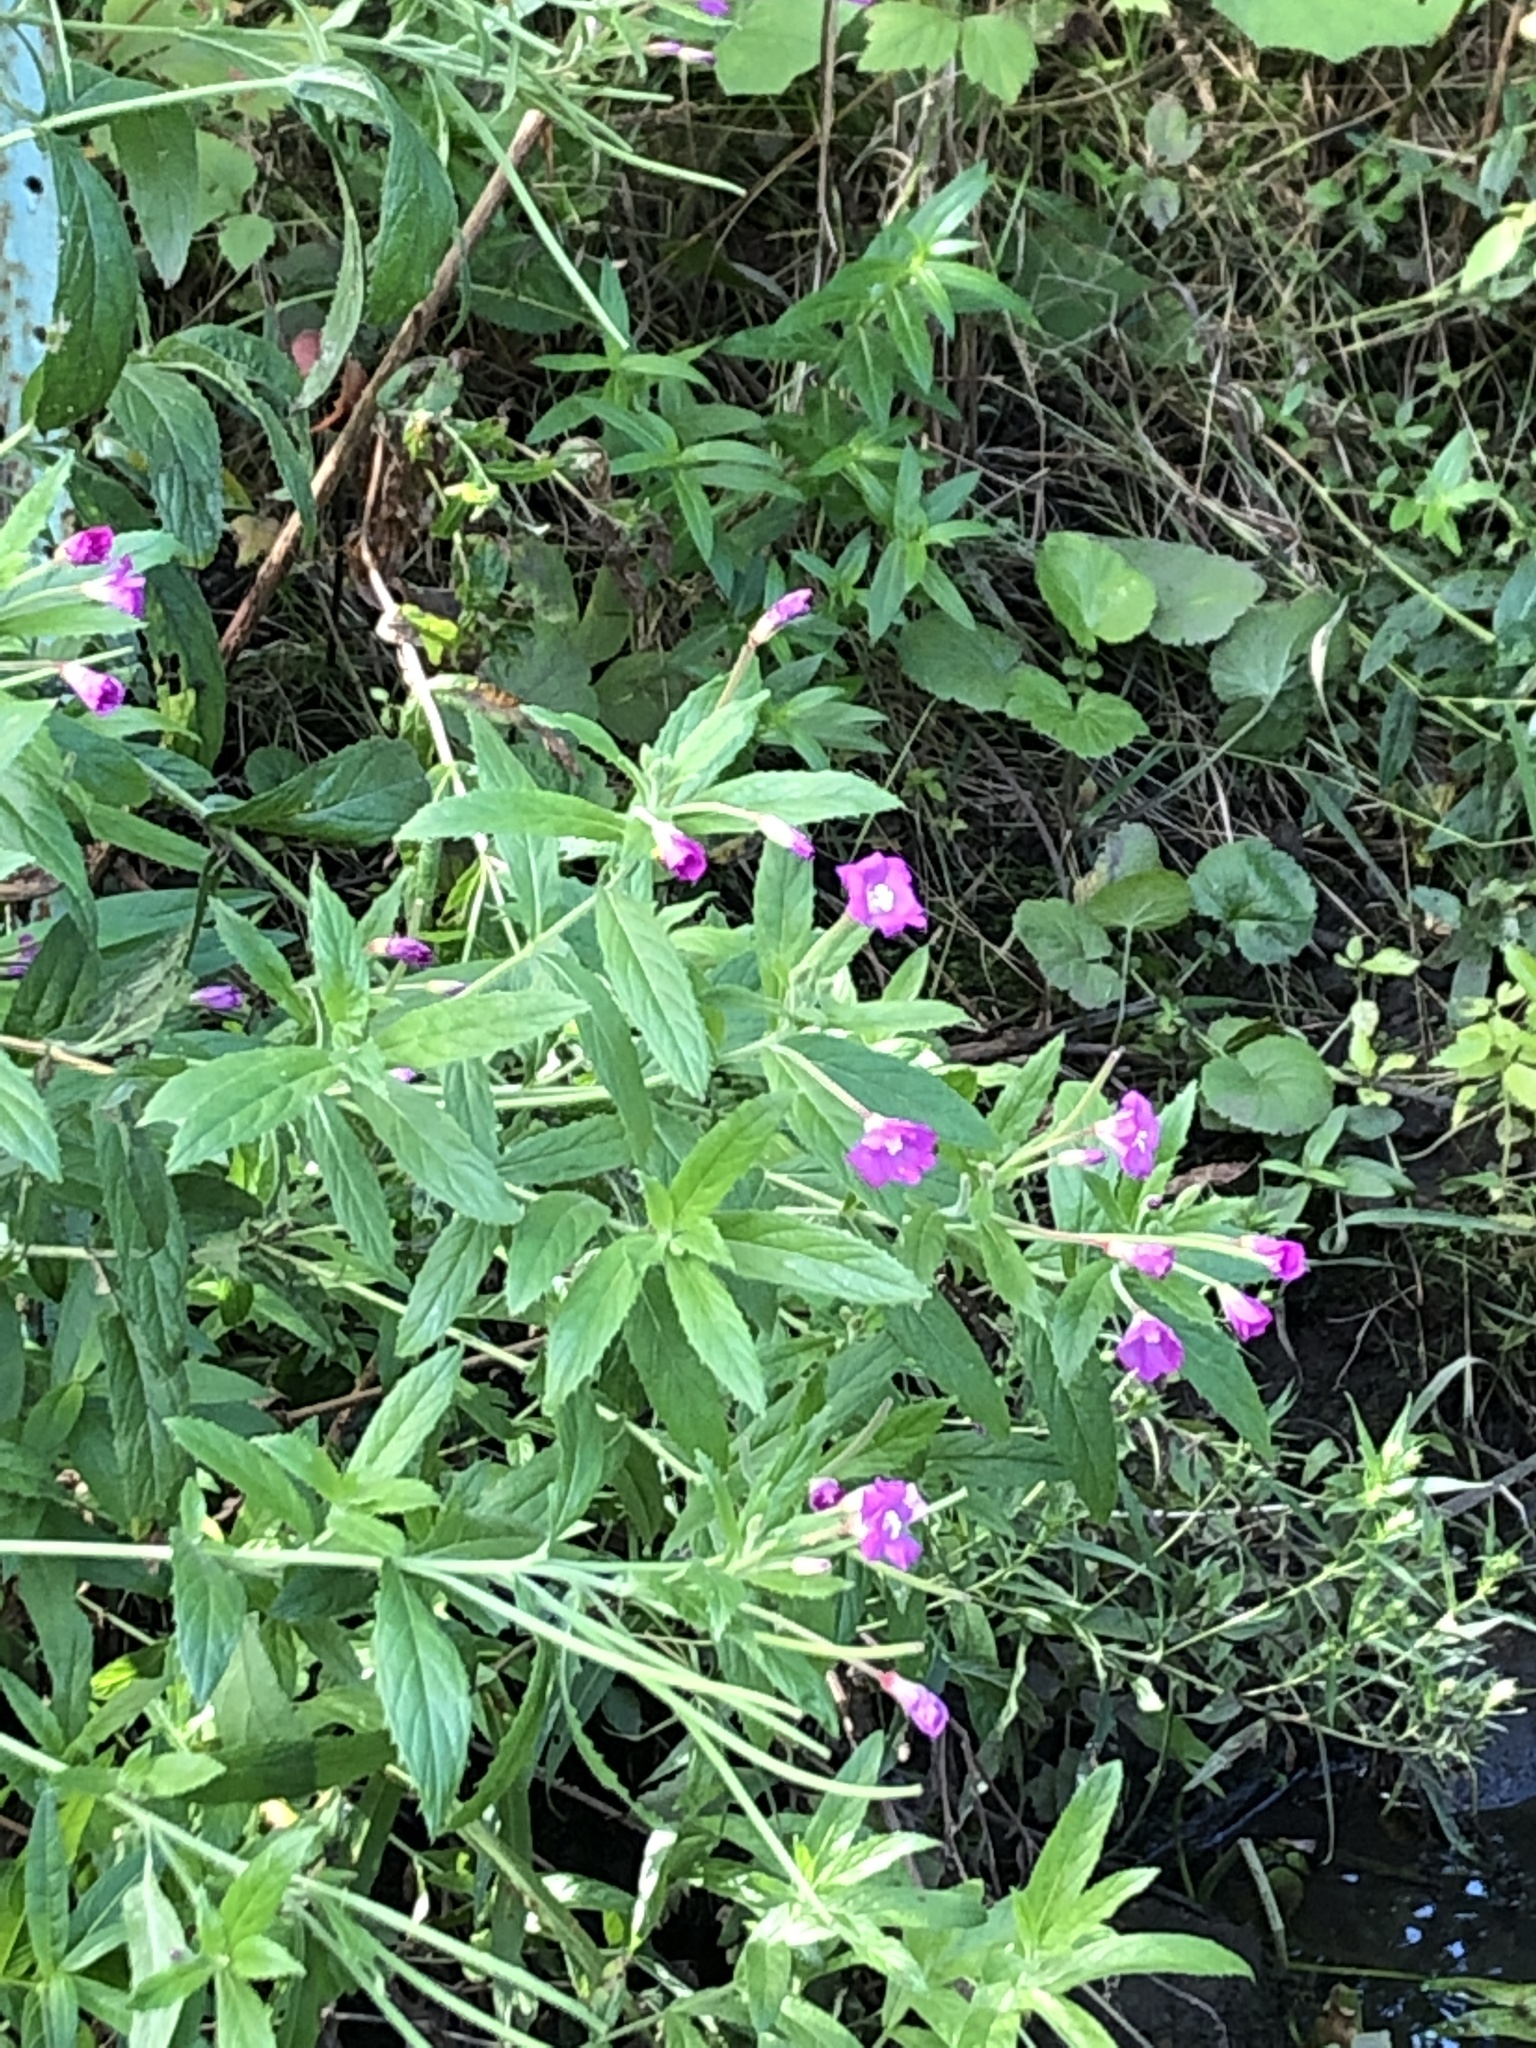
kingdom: Plantae
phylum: Tracheophyta
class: Magnoliopsida
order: Myrtales
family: Onagraceae
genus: Epilobium
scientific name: Epilobium hirsutum
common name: Great willowherb
